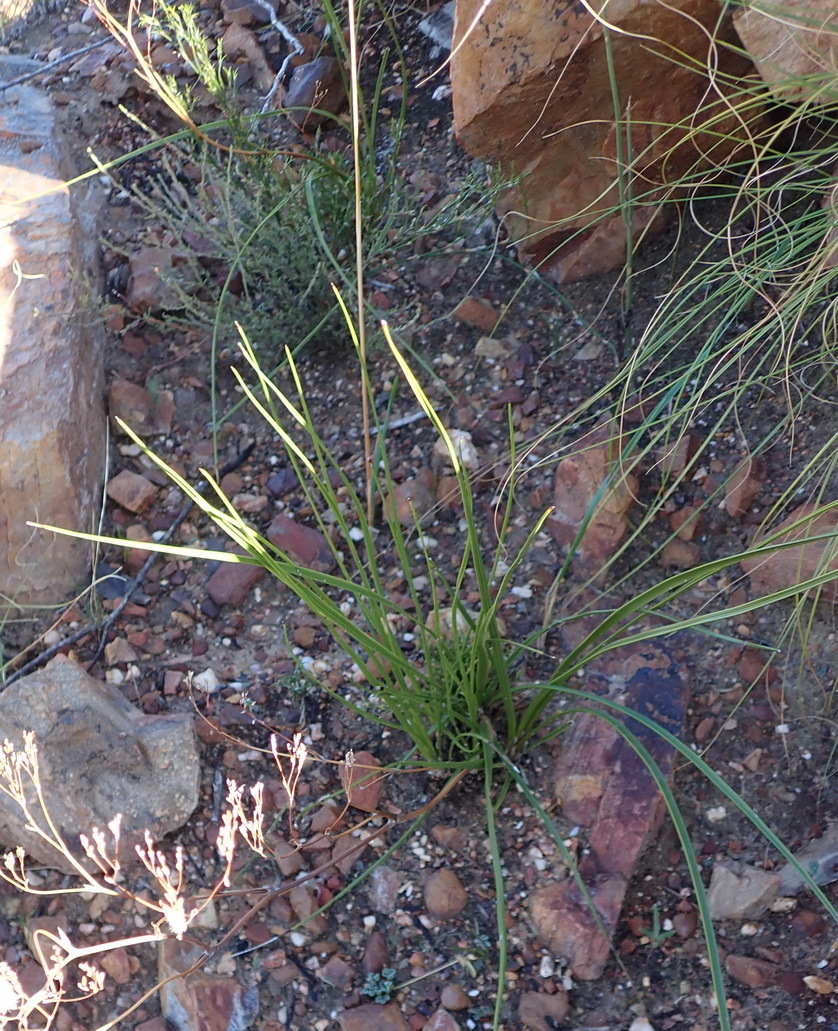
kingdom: Plantae
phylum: Tracheophyta
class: Magnoliopsida
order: Asterales
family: Asteraceae
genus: Corymbium
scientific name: Corymbium glabrum
